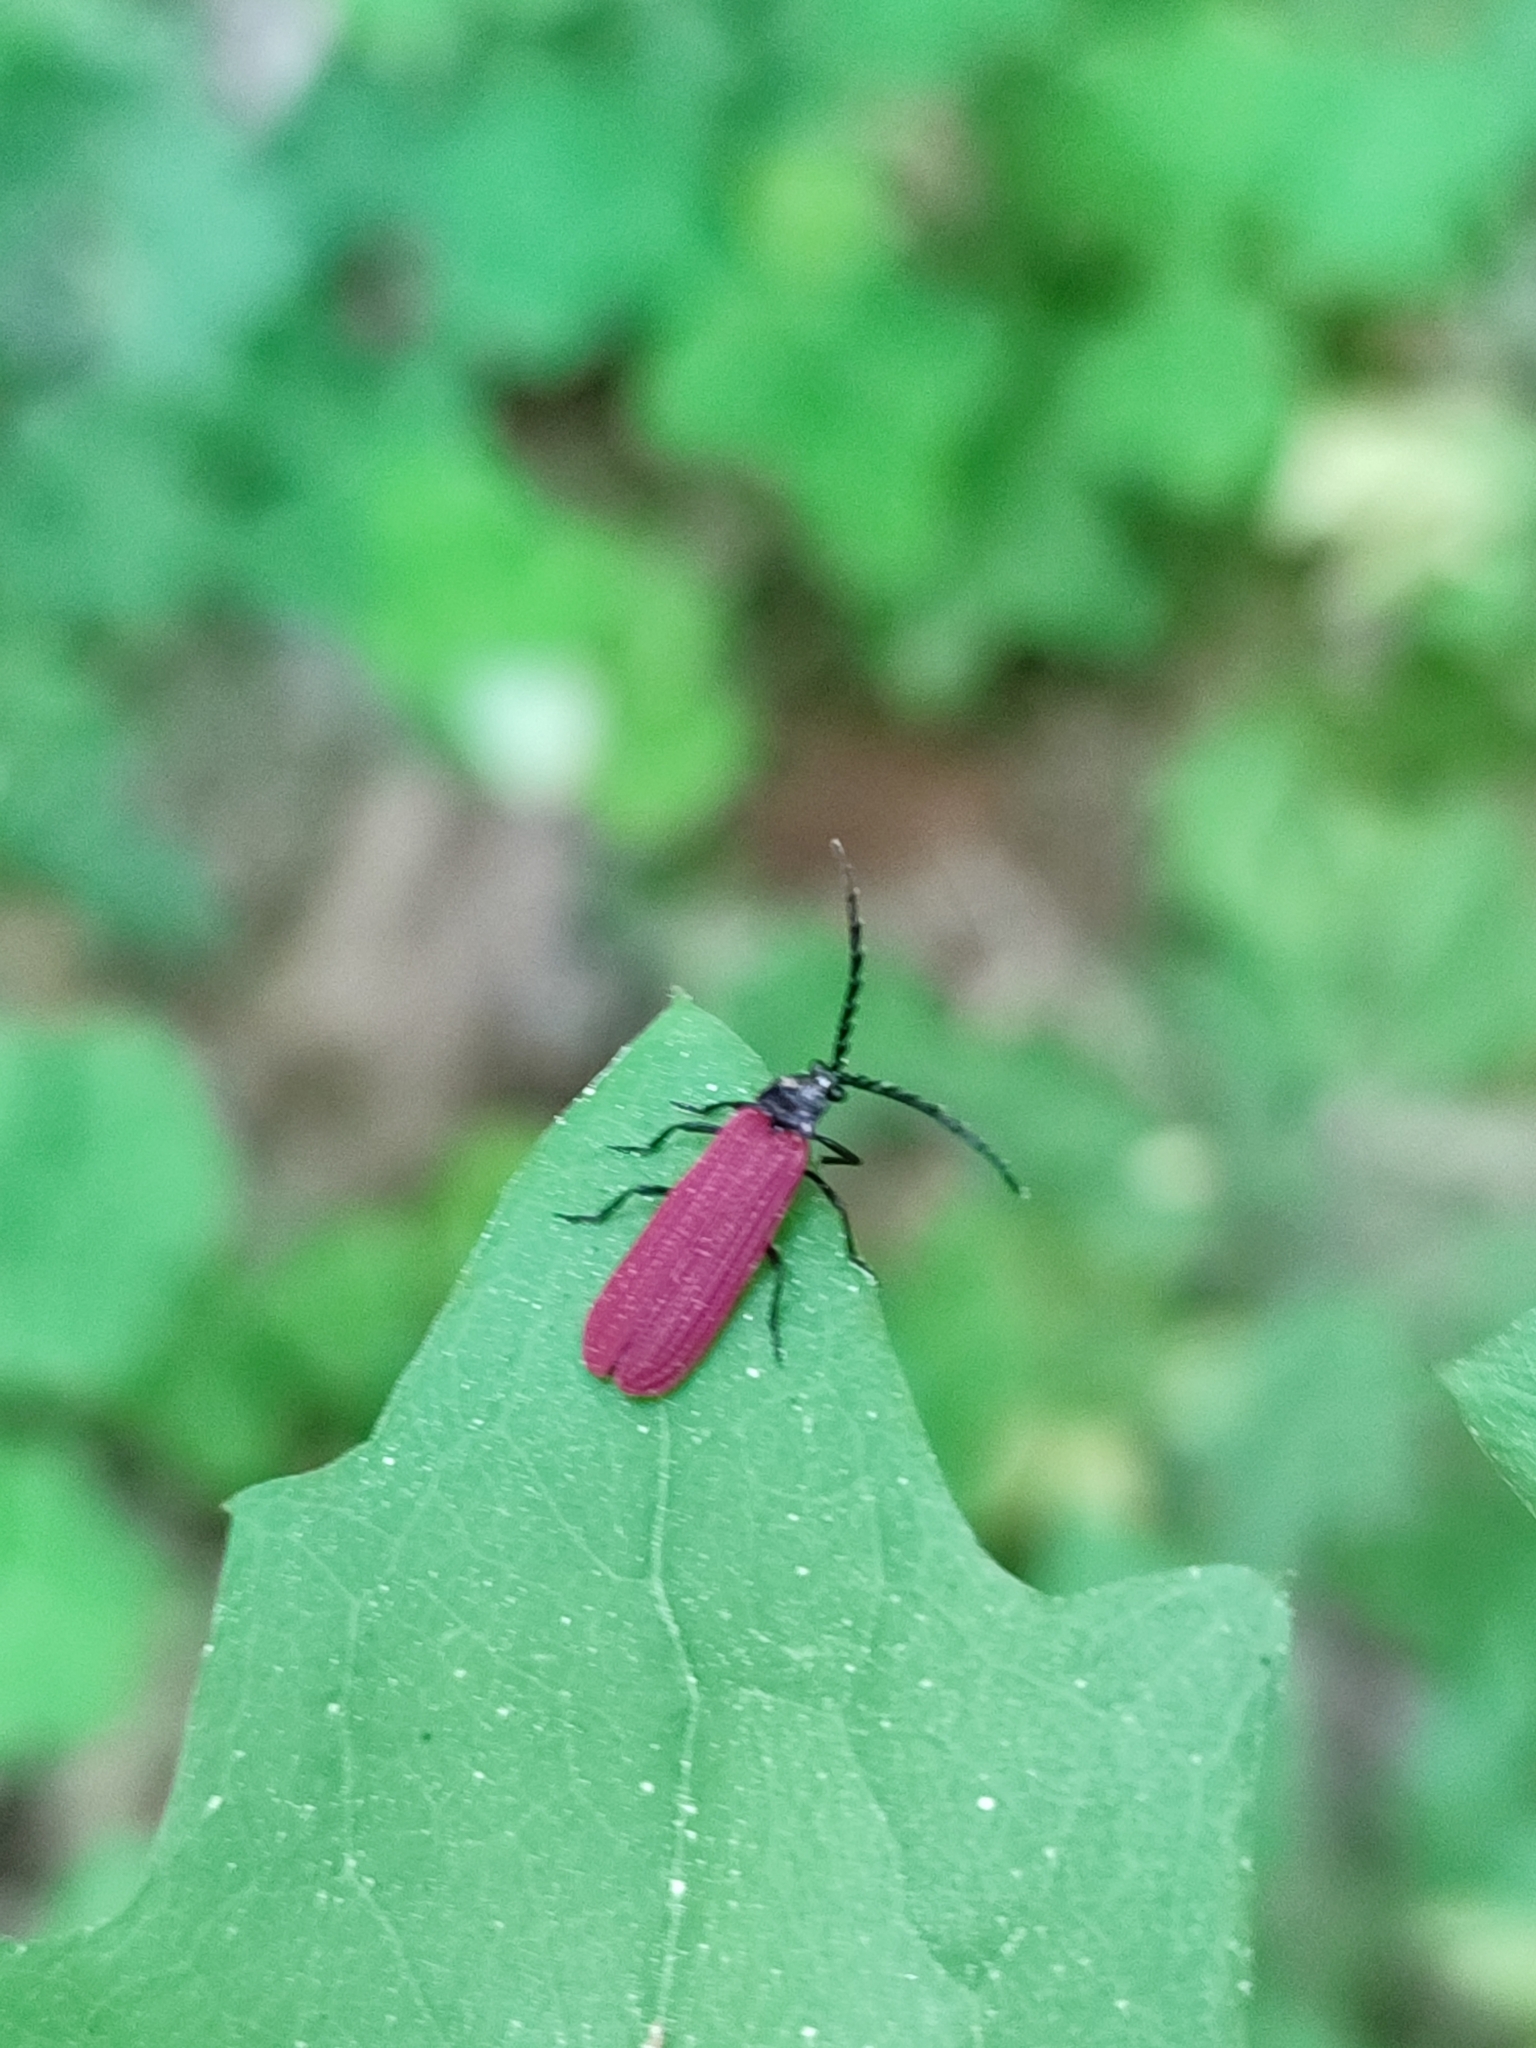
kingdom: Animalia
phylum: Arthropoda
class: Insecta
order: Coleoptera
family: Lycidae
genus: Xylobanellus
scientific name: Xylobanellus erythropterus
